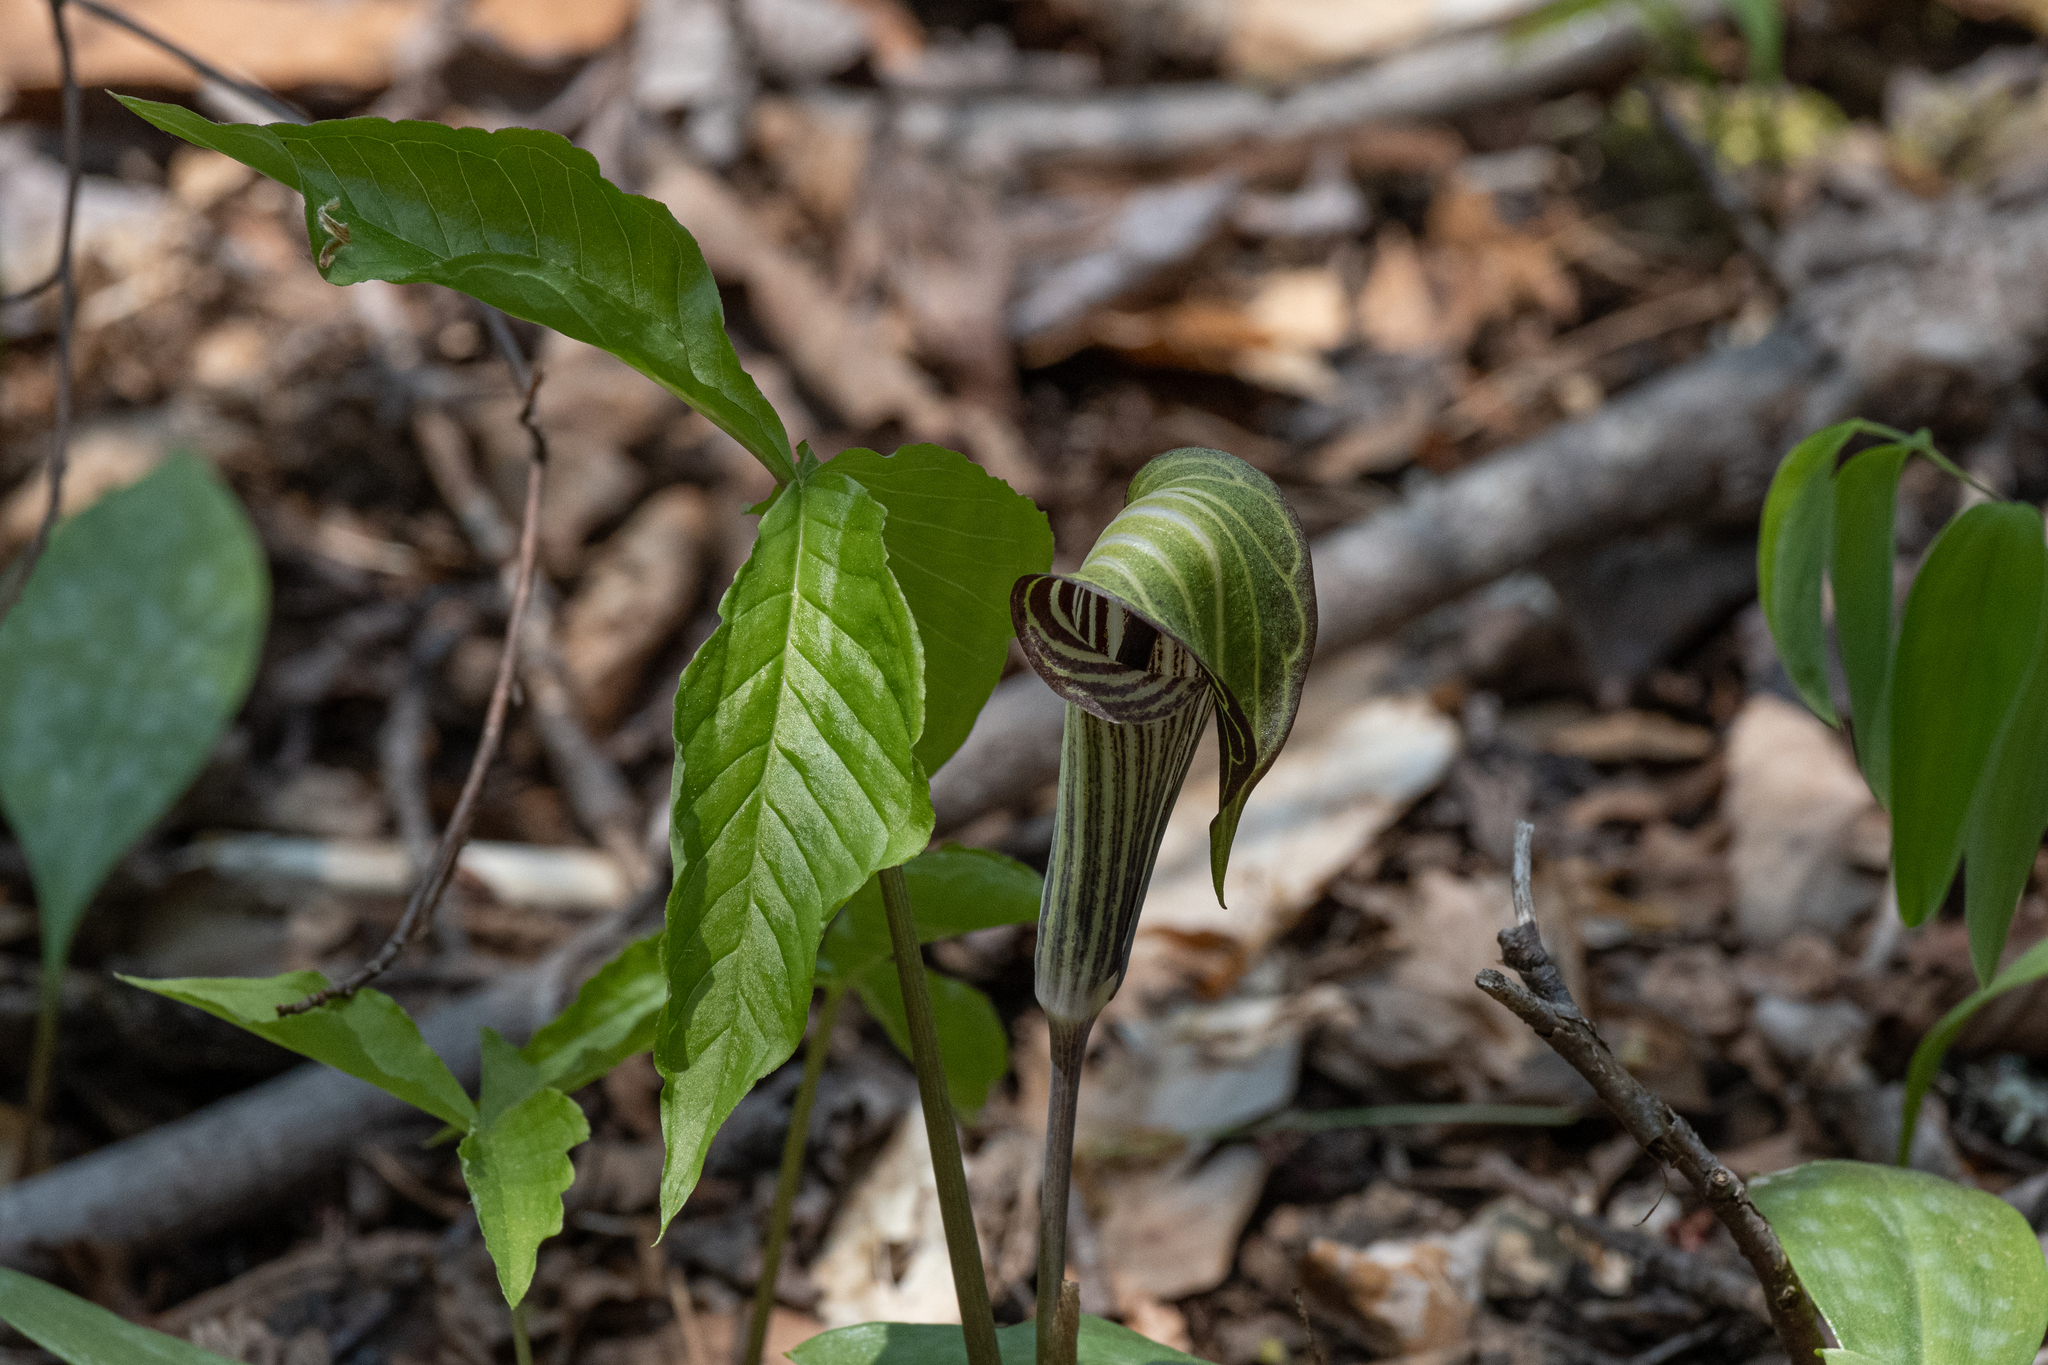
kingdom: Plantae
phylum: Tracheophyta
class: Liliopsida
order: Alismatales
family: Araceae
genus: Arisaema
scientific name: Arisaema triphyllum
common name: Jack-in-the-pulpit
